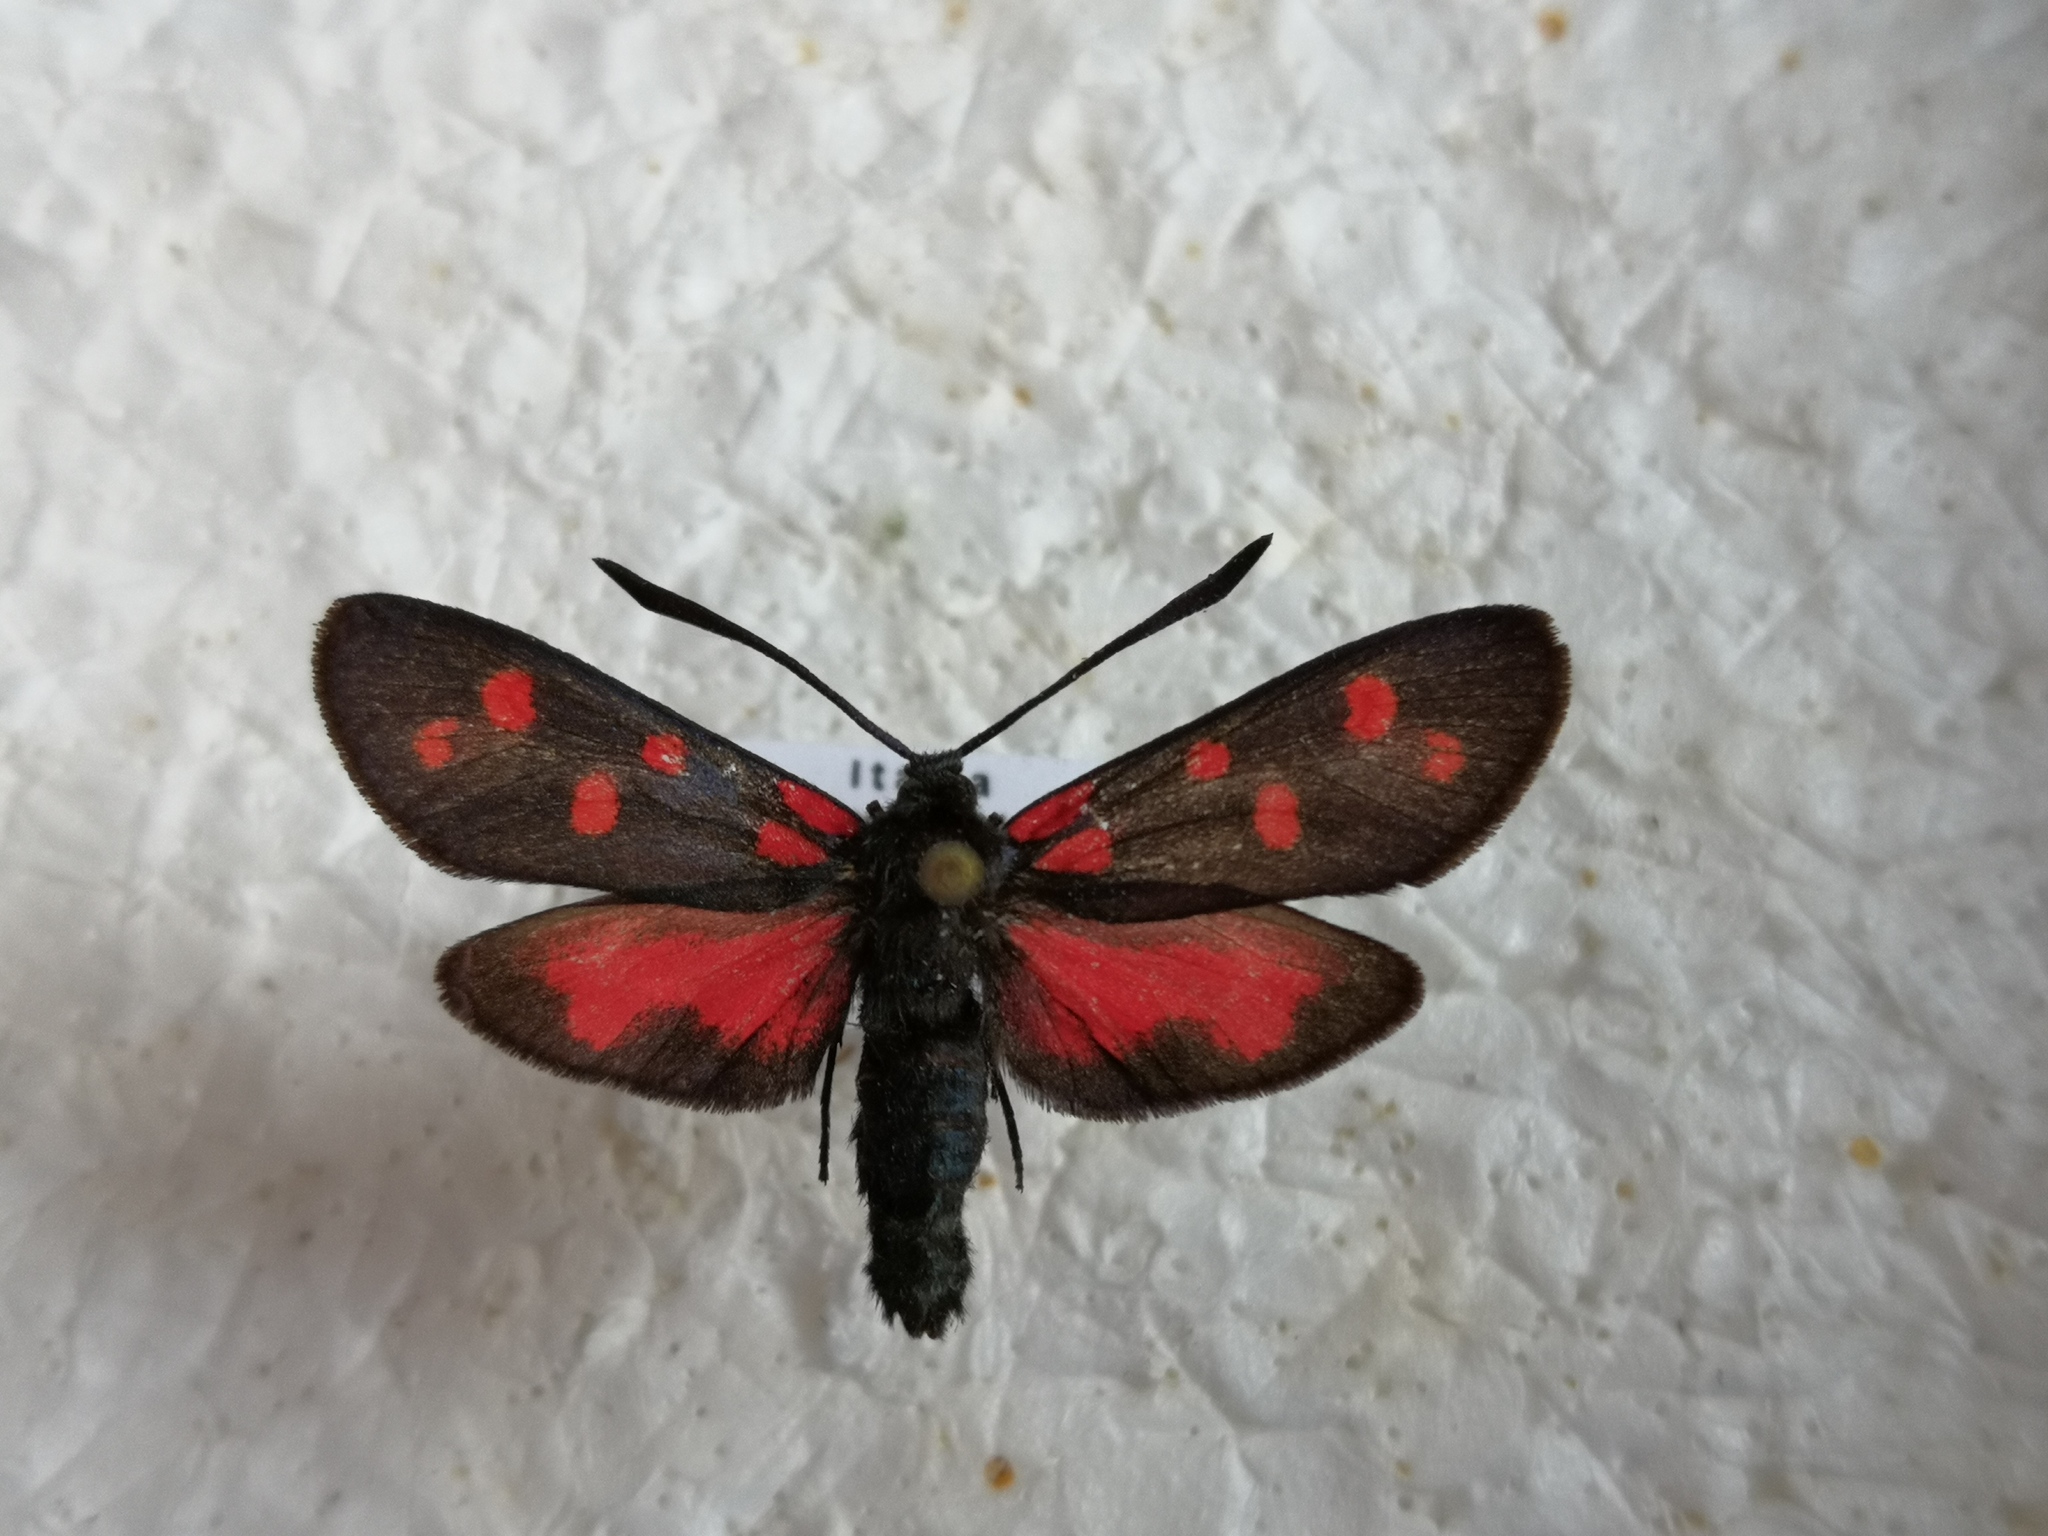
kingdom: Animalia
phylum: Arthropoda
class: Insecta
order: Lepidoptera
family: Zygaenidae
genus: Zygaena
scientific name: Zygaena transalpina
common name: Southern six spot burnet
